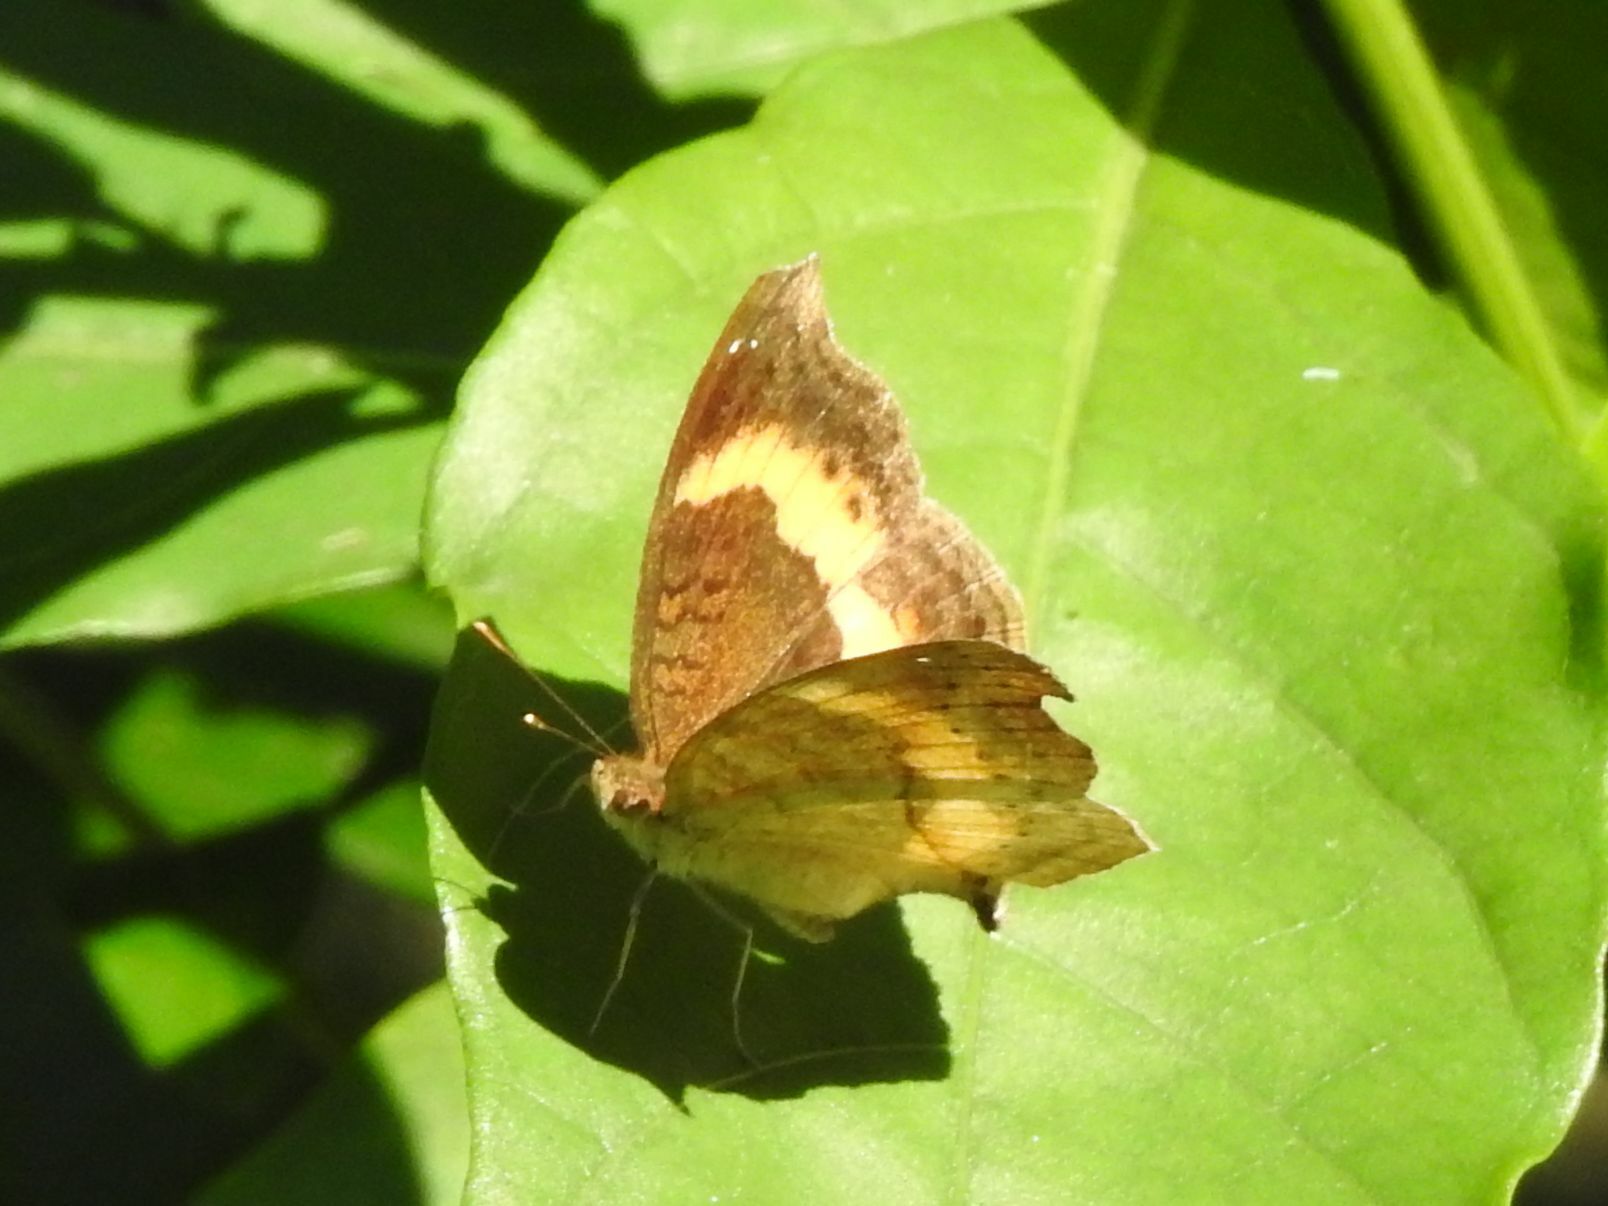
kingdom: Animalia
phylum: Arthropoda
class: Insecta
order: Lepidoptera
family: Nymphalidae
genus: Junonia
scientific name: Junonia terea
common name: Soldier pansy
